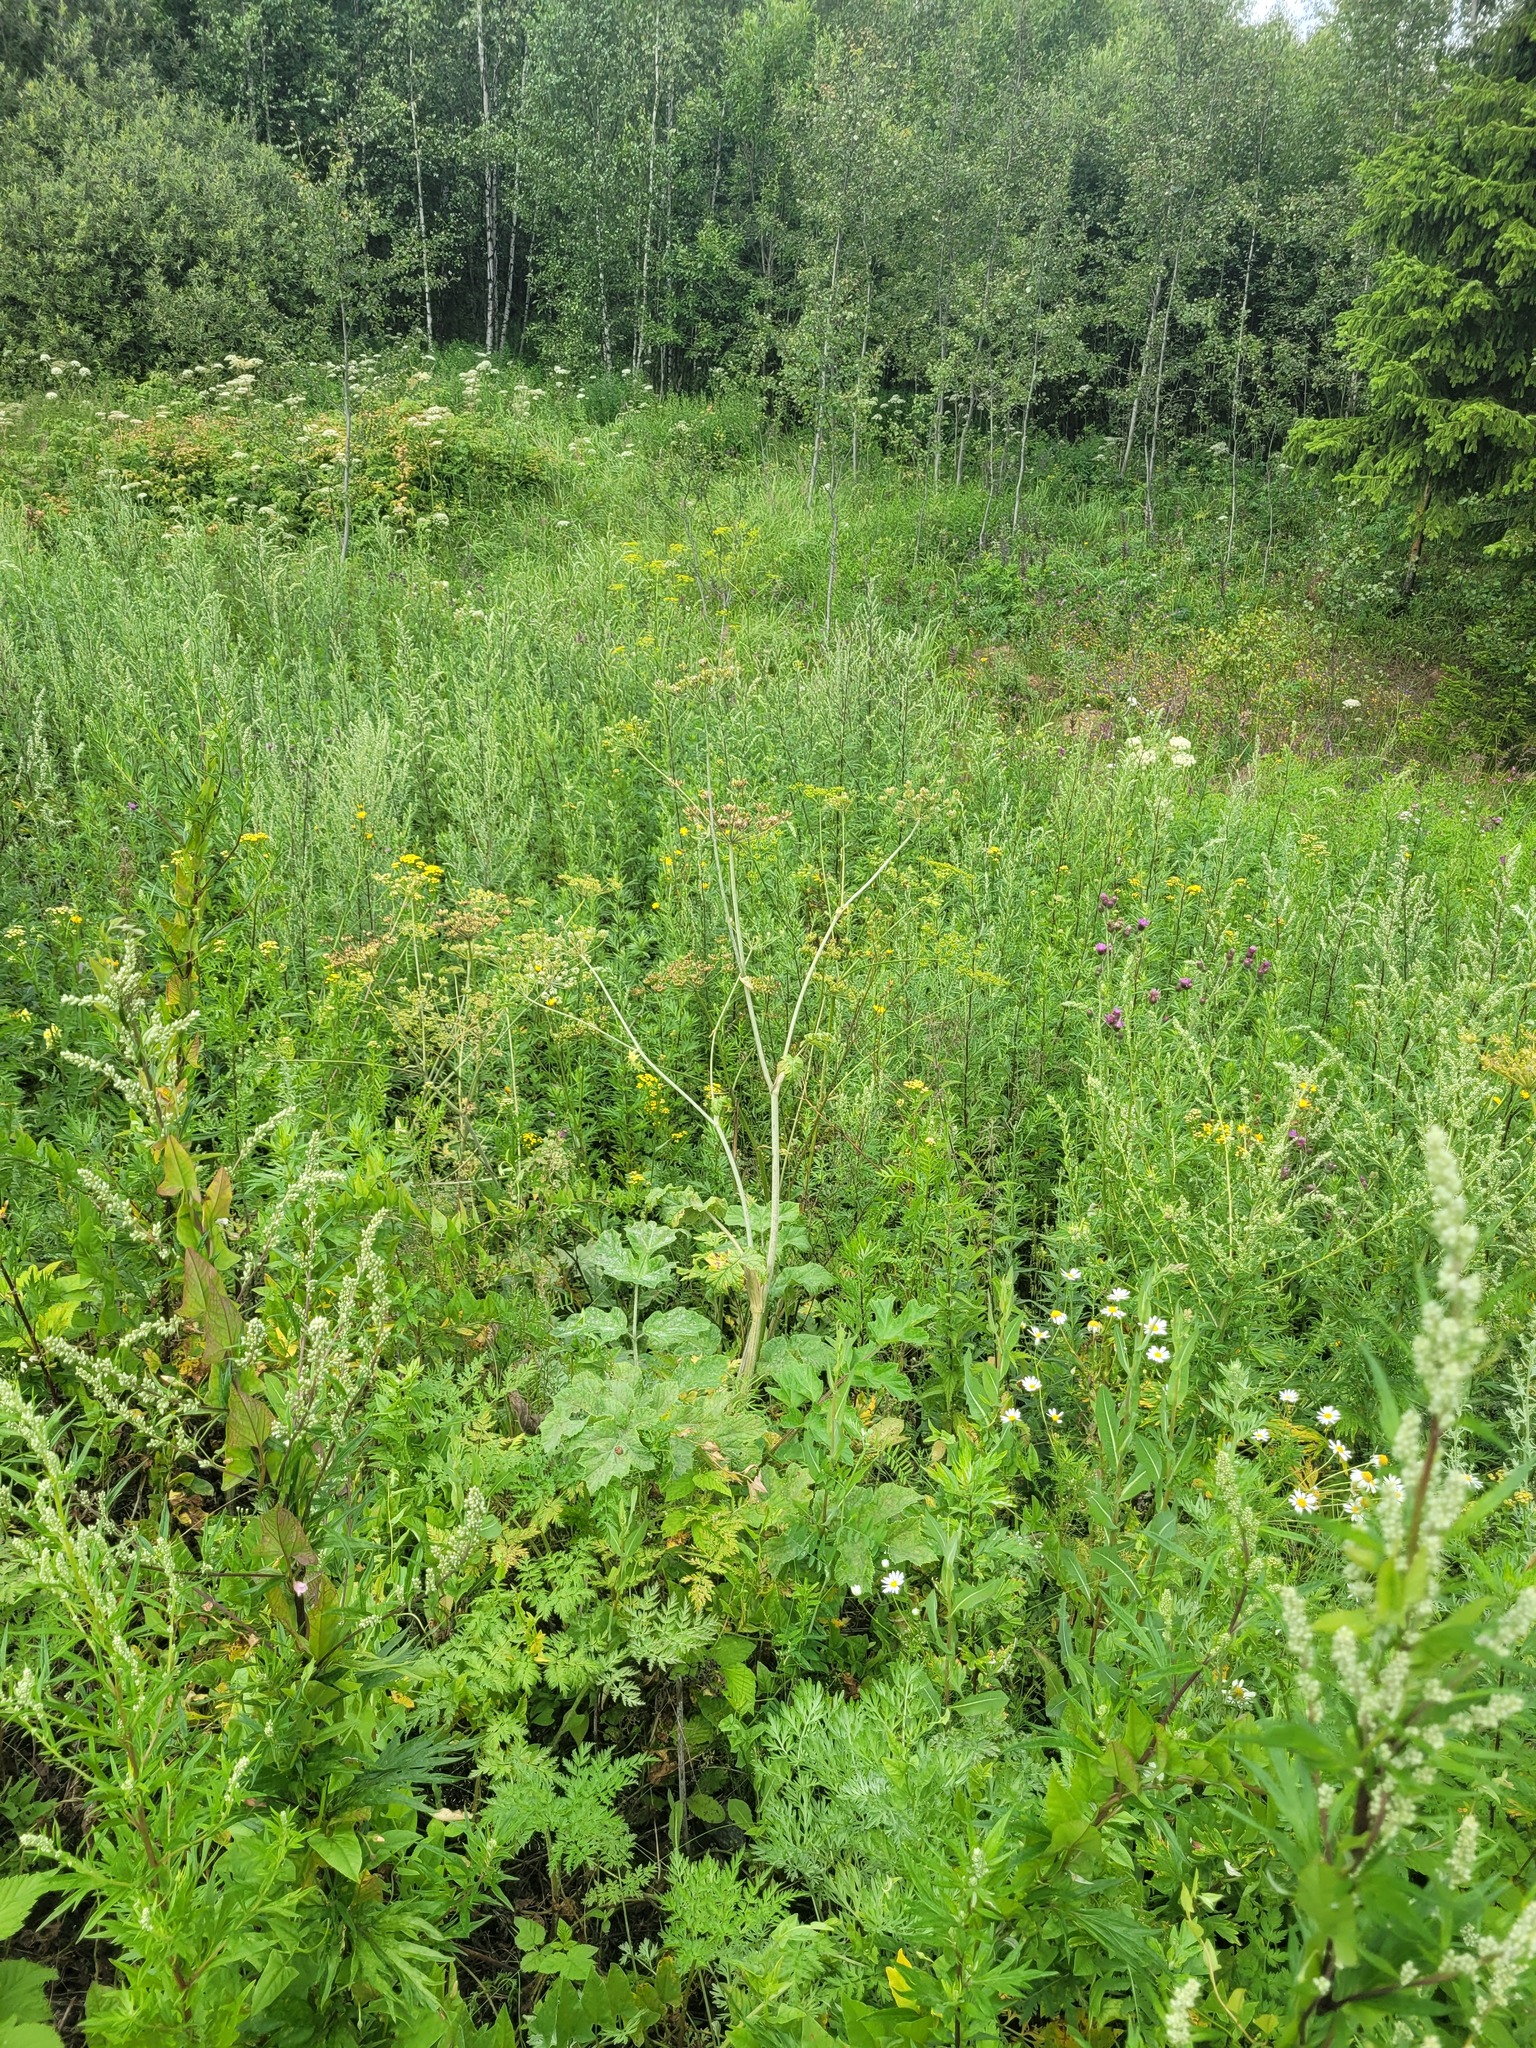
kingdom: Plantae
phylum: Tracheophyta
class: Magnoliopsida
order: Apiales
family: Apiaceae
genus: Heracleum
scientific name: Heracleum sphondylium
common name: Hogweed
